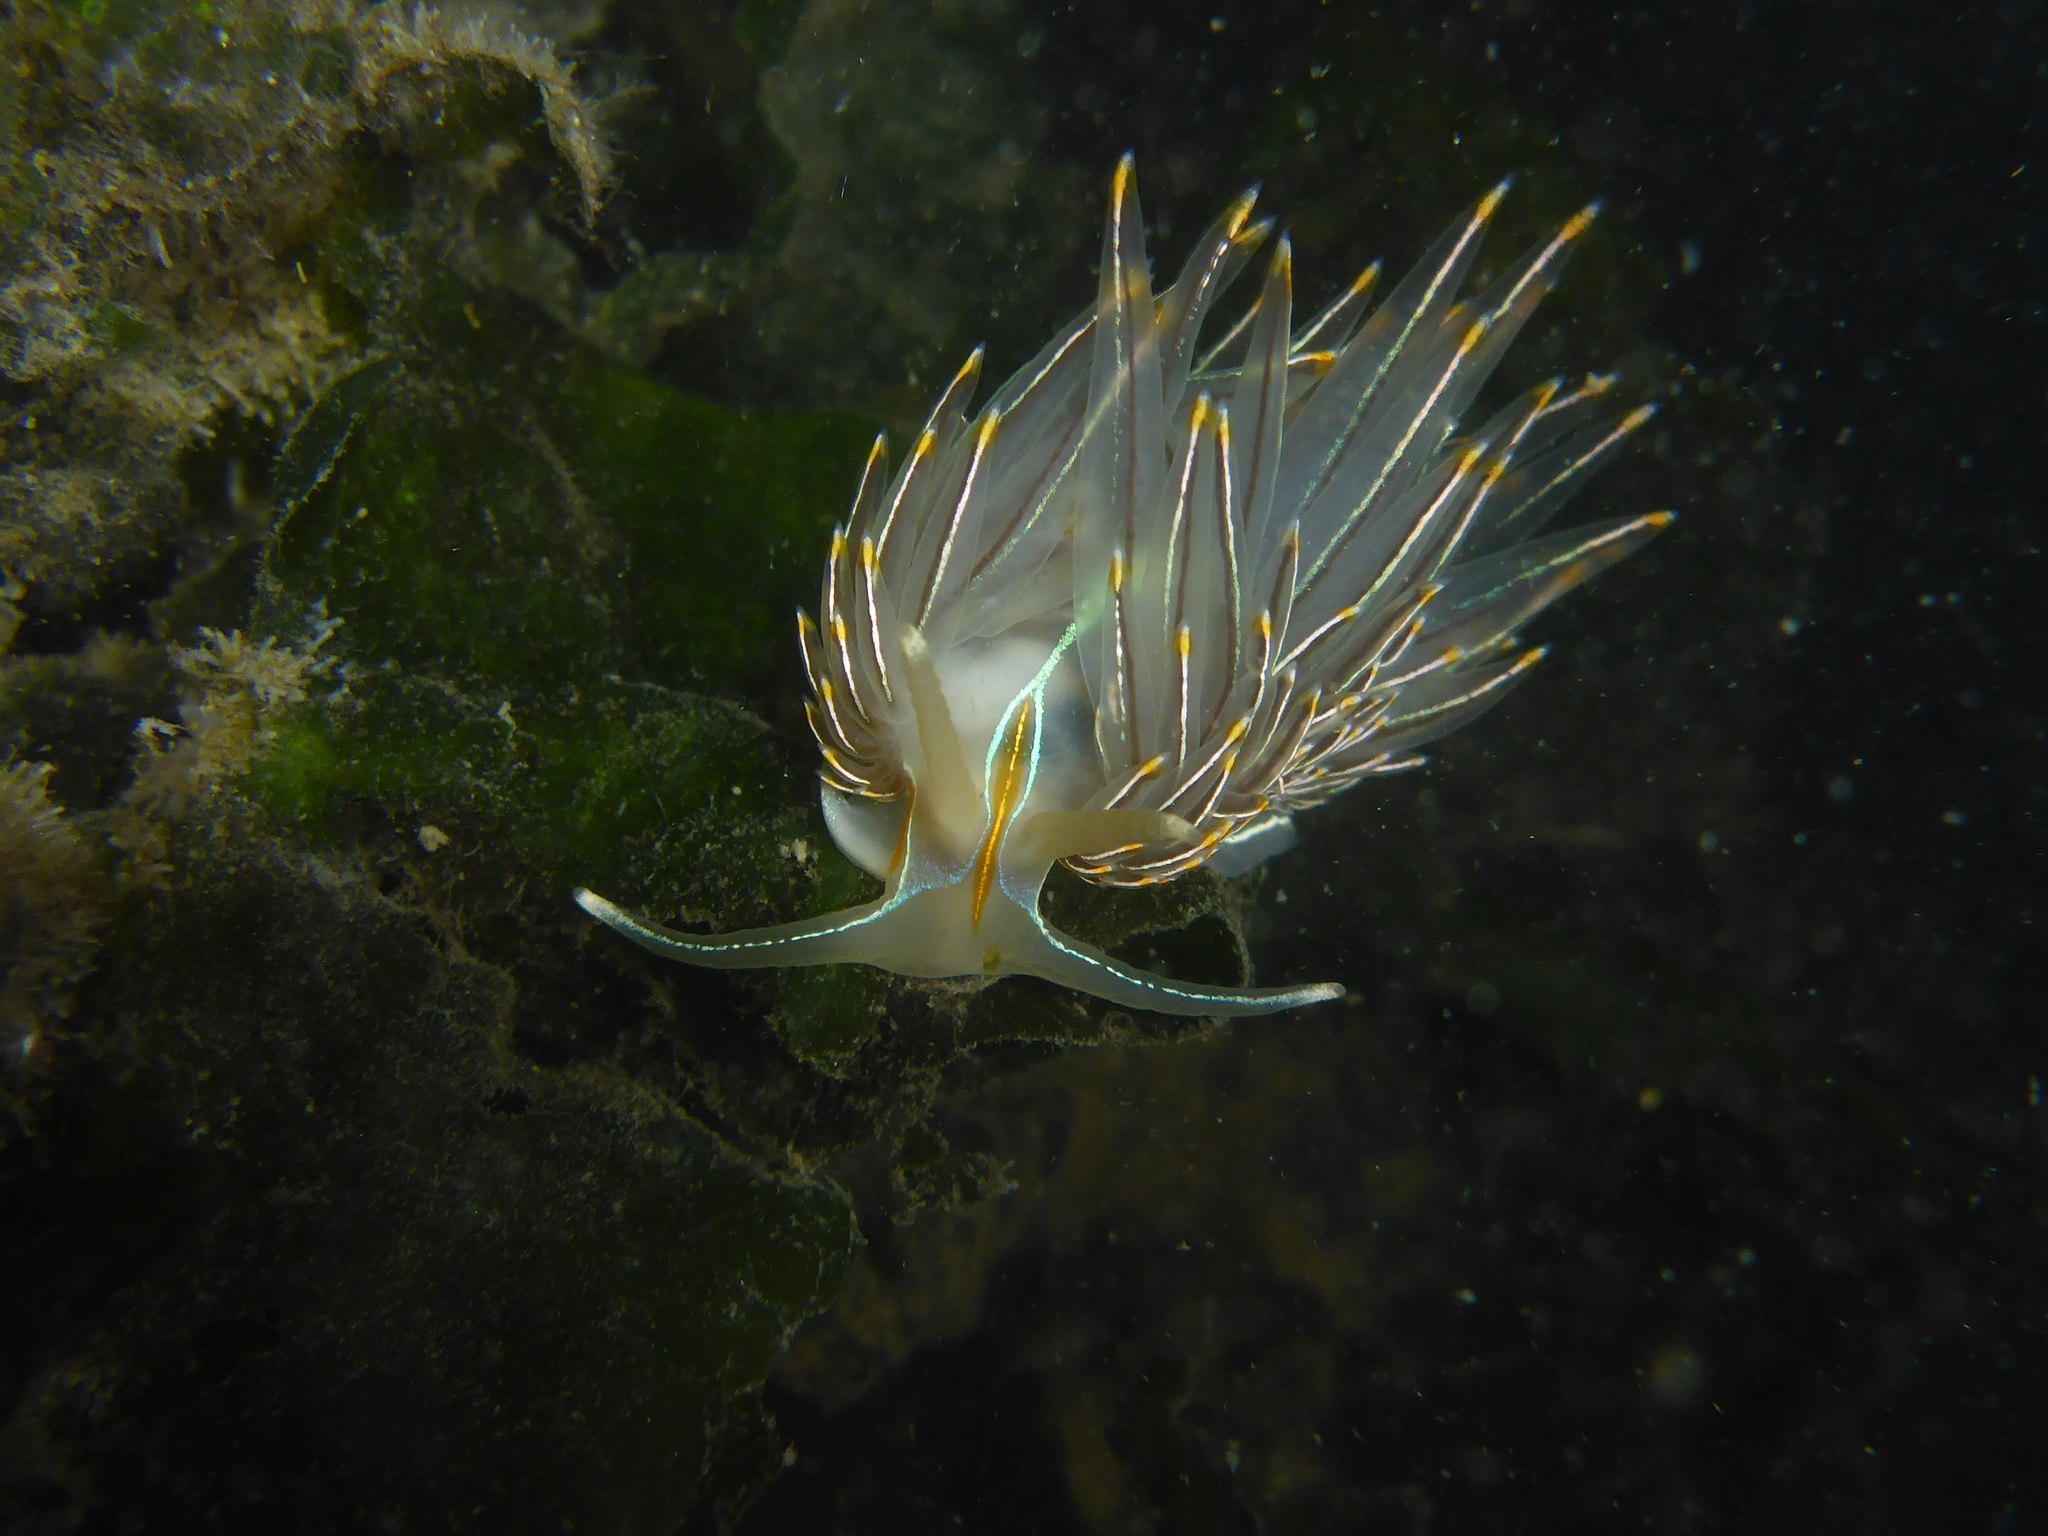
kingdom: Animalia
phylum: Mollusca
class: Gastropoda
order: Nudibranchia
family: Myrrhinidae
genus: Hermissenda
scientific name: Hermissenda crassicornis
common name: Hermissenda
